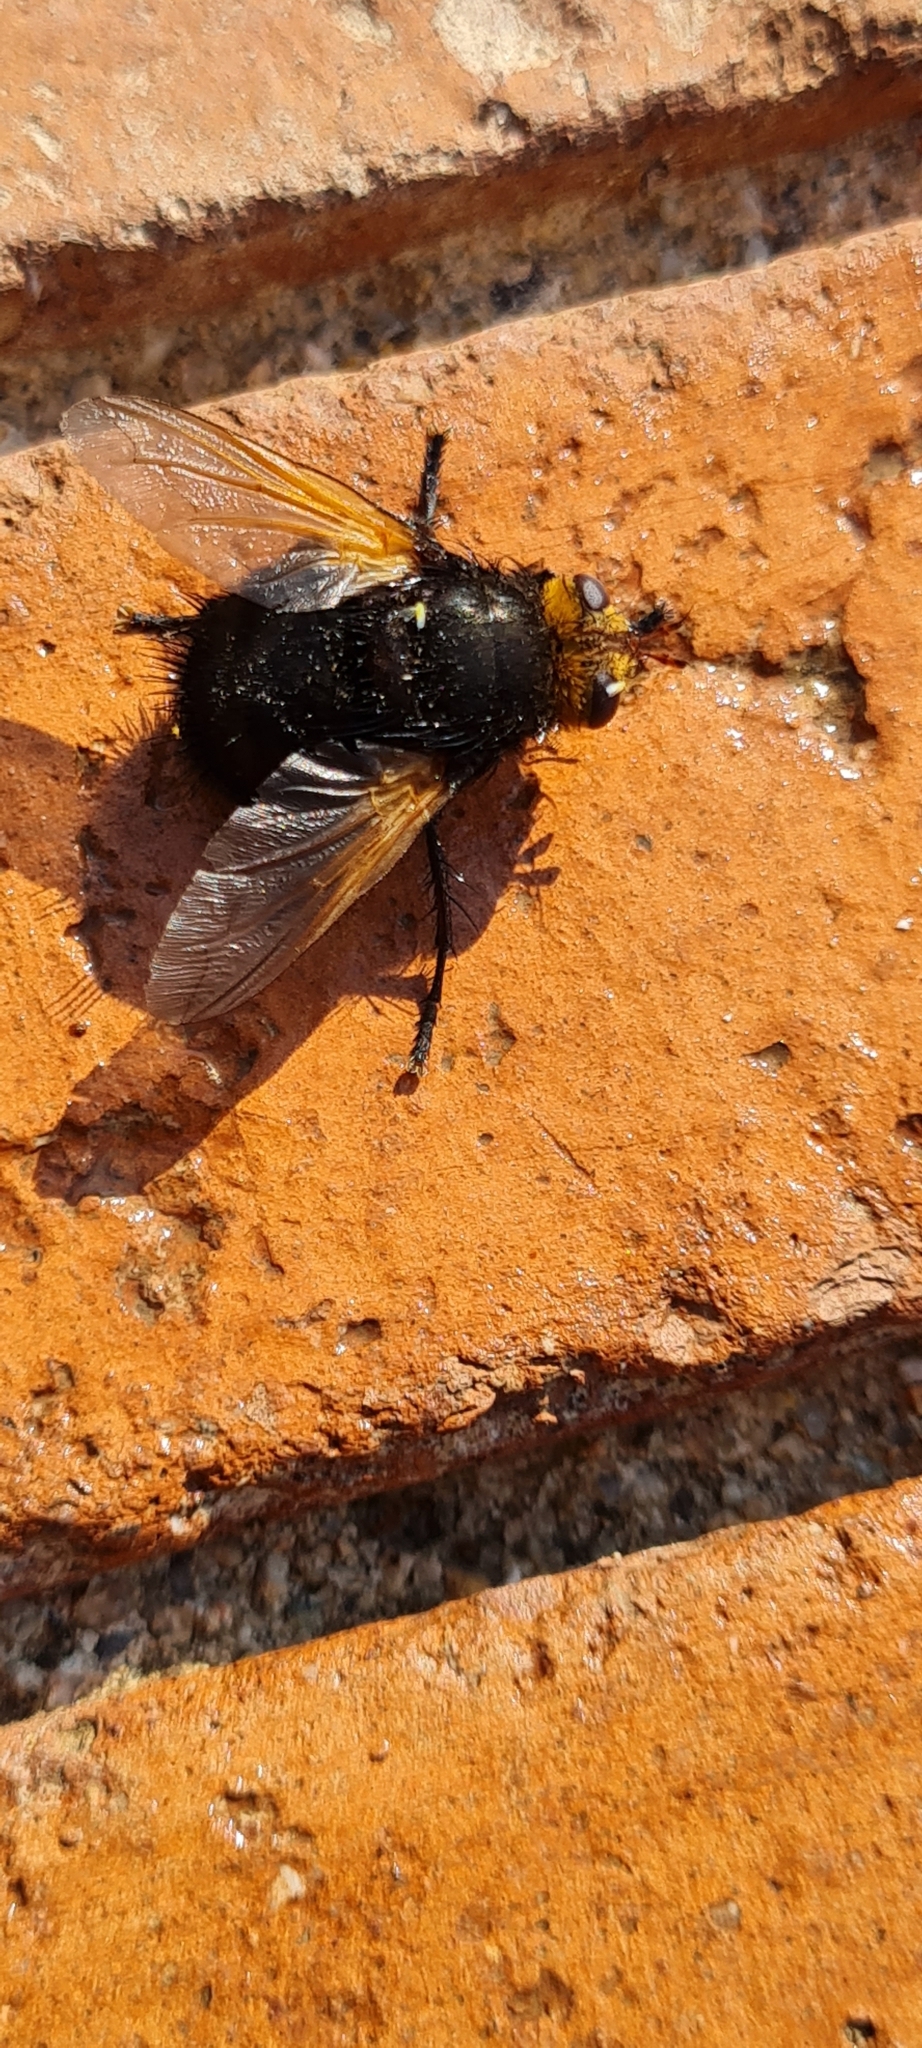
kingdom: Animalia
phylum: Arthropoda
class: Insecta
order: Diptera
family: Tachinidae
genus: Tachina
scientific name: Tachina grossa
